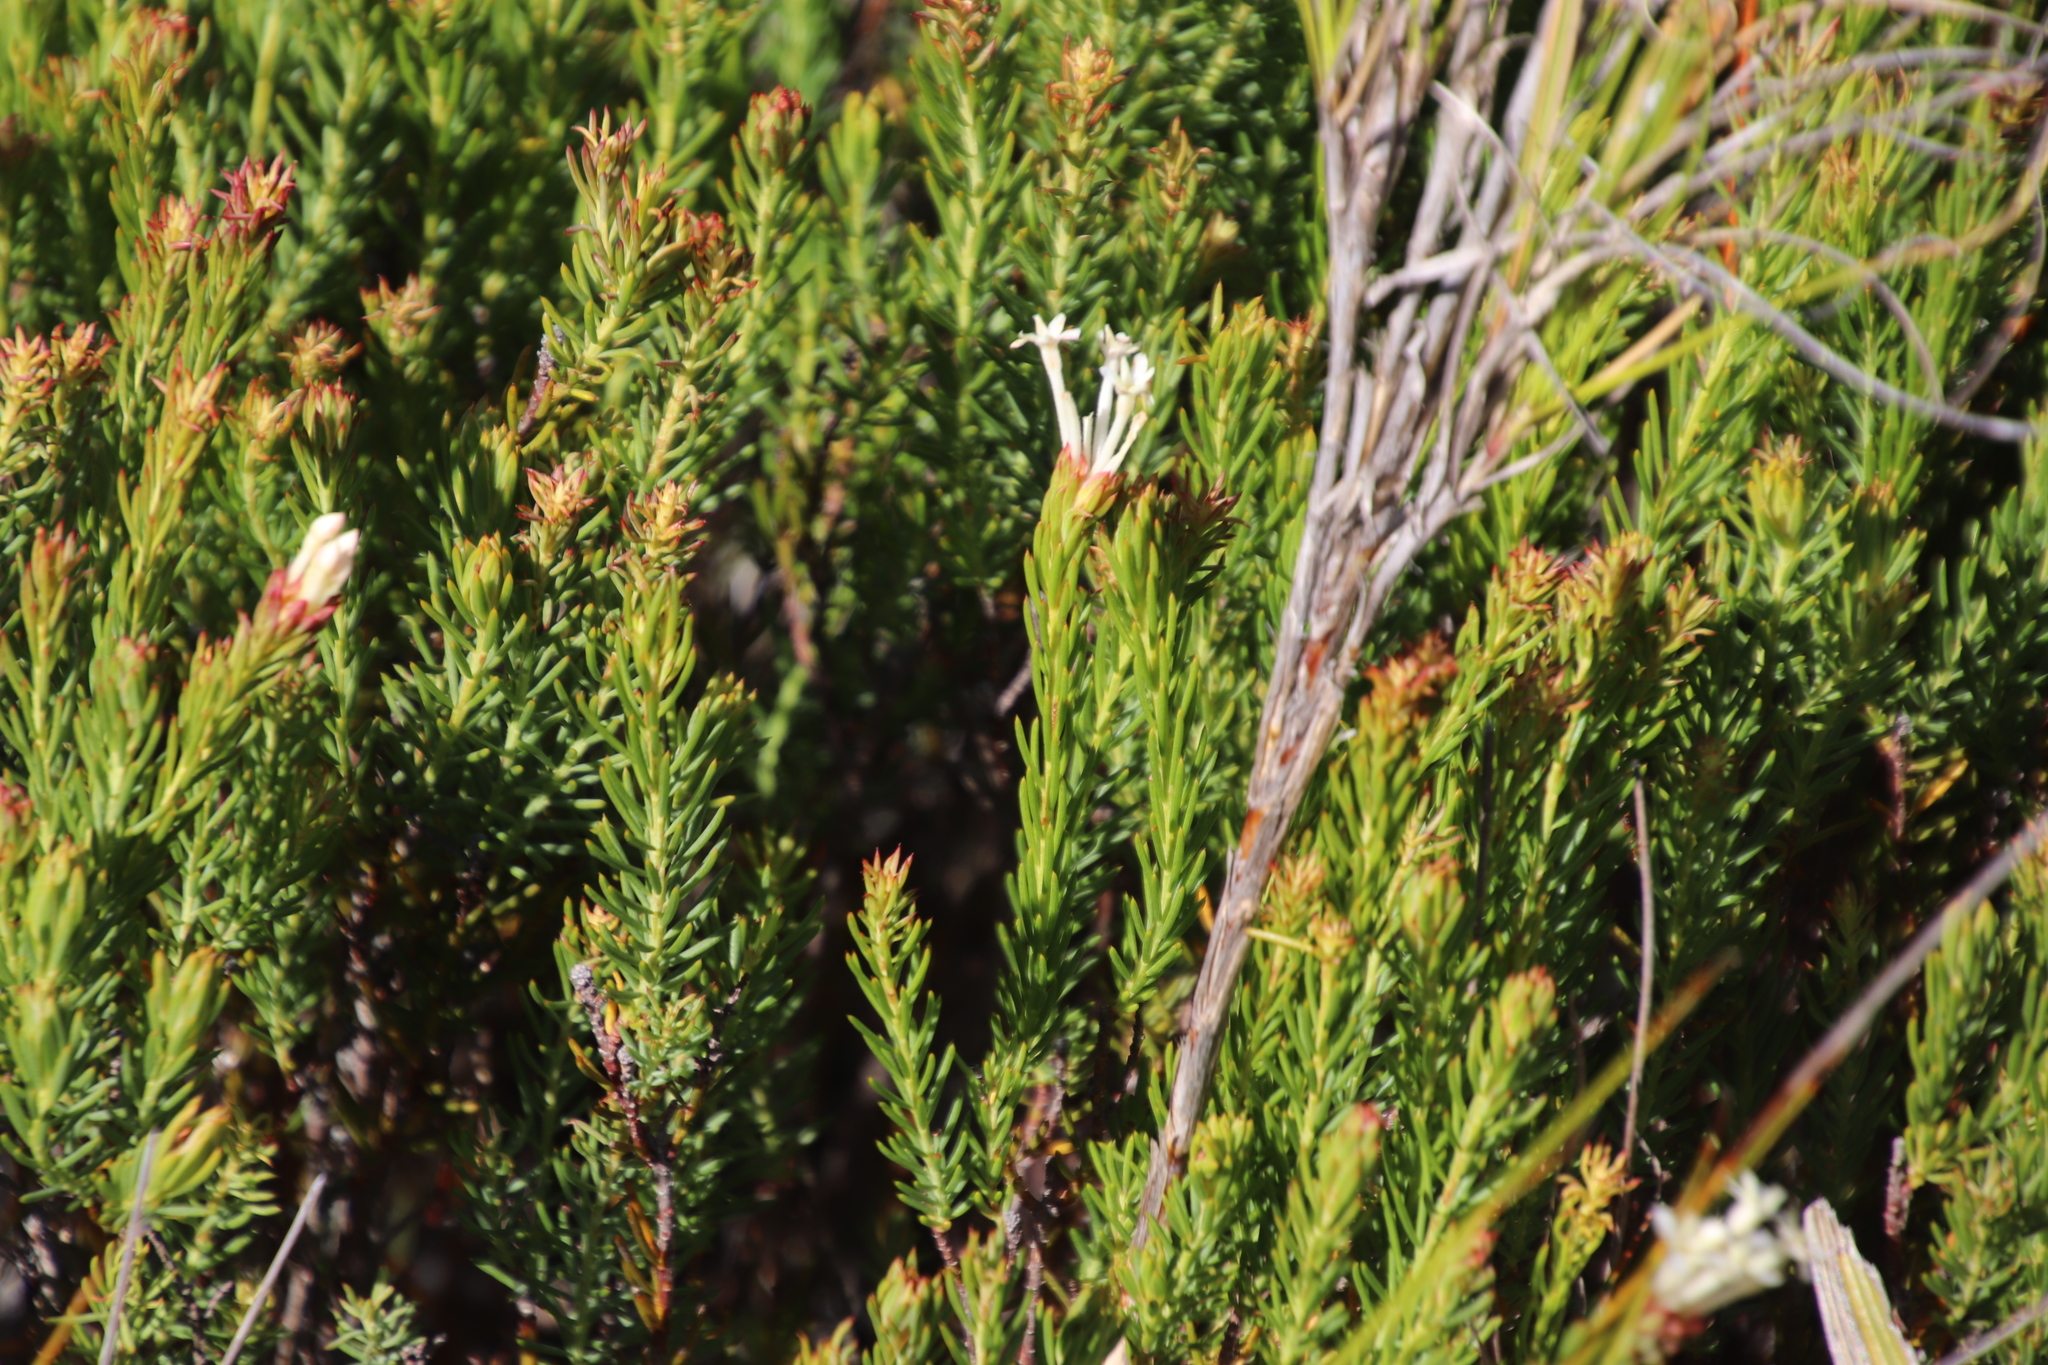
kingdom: Plantae
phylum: Tracheophyta
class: Magnoliopsida
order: Malvales
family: Thymelaeaceae
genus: Gnidia
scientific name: Gnidia pinifolia
